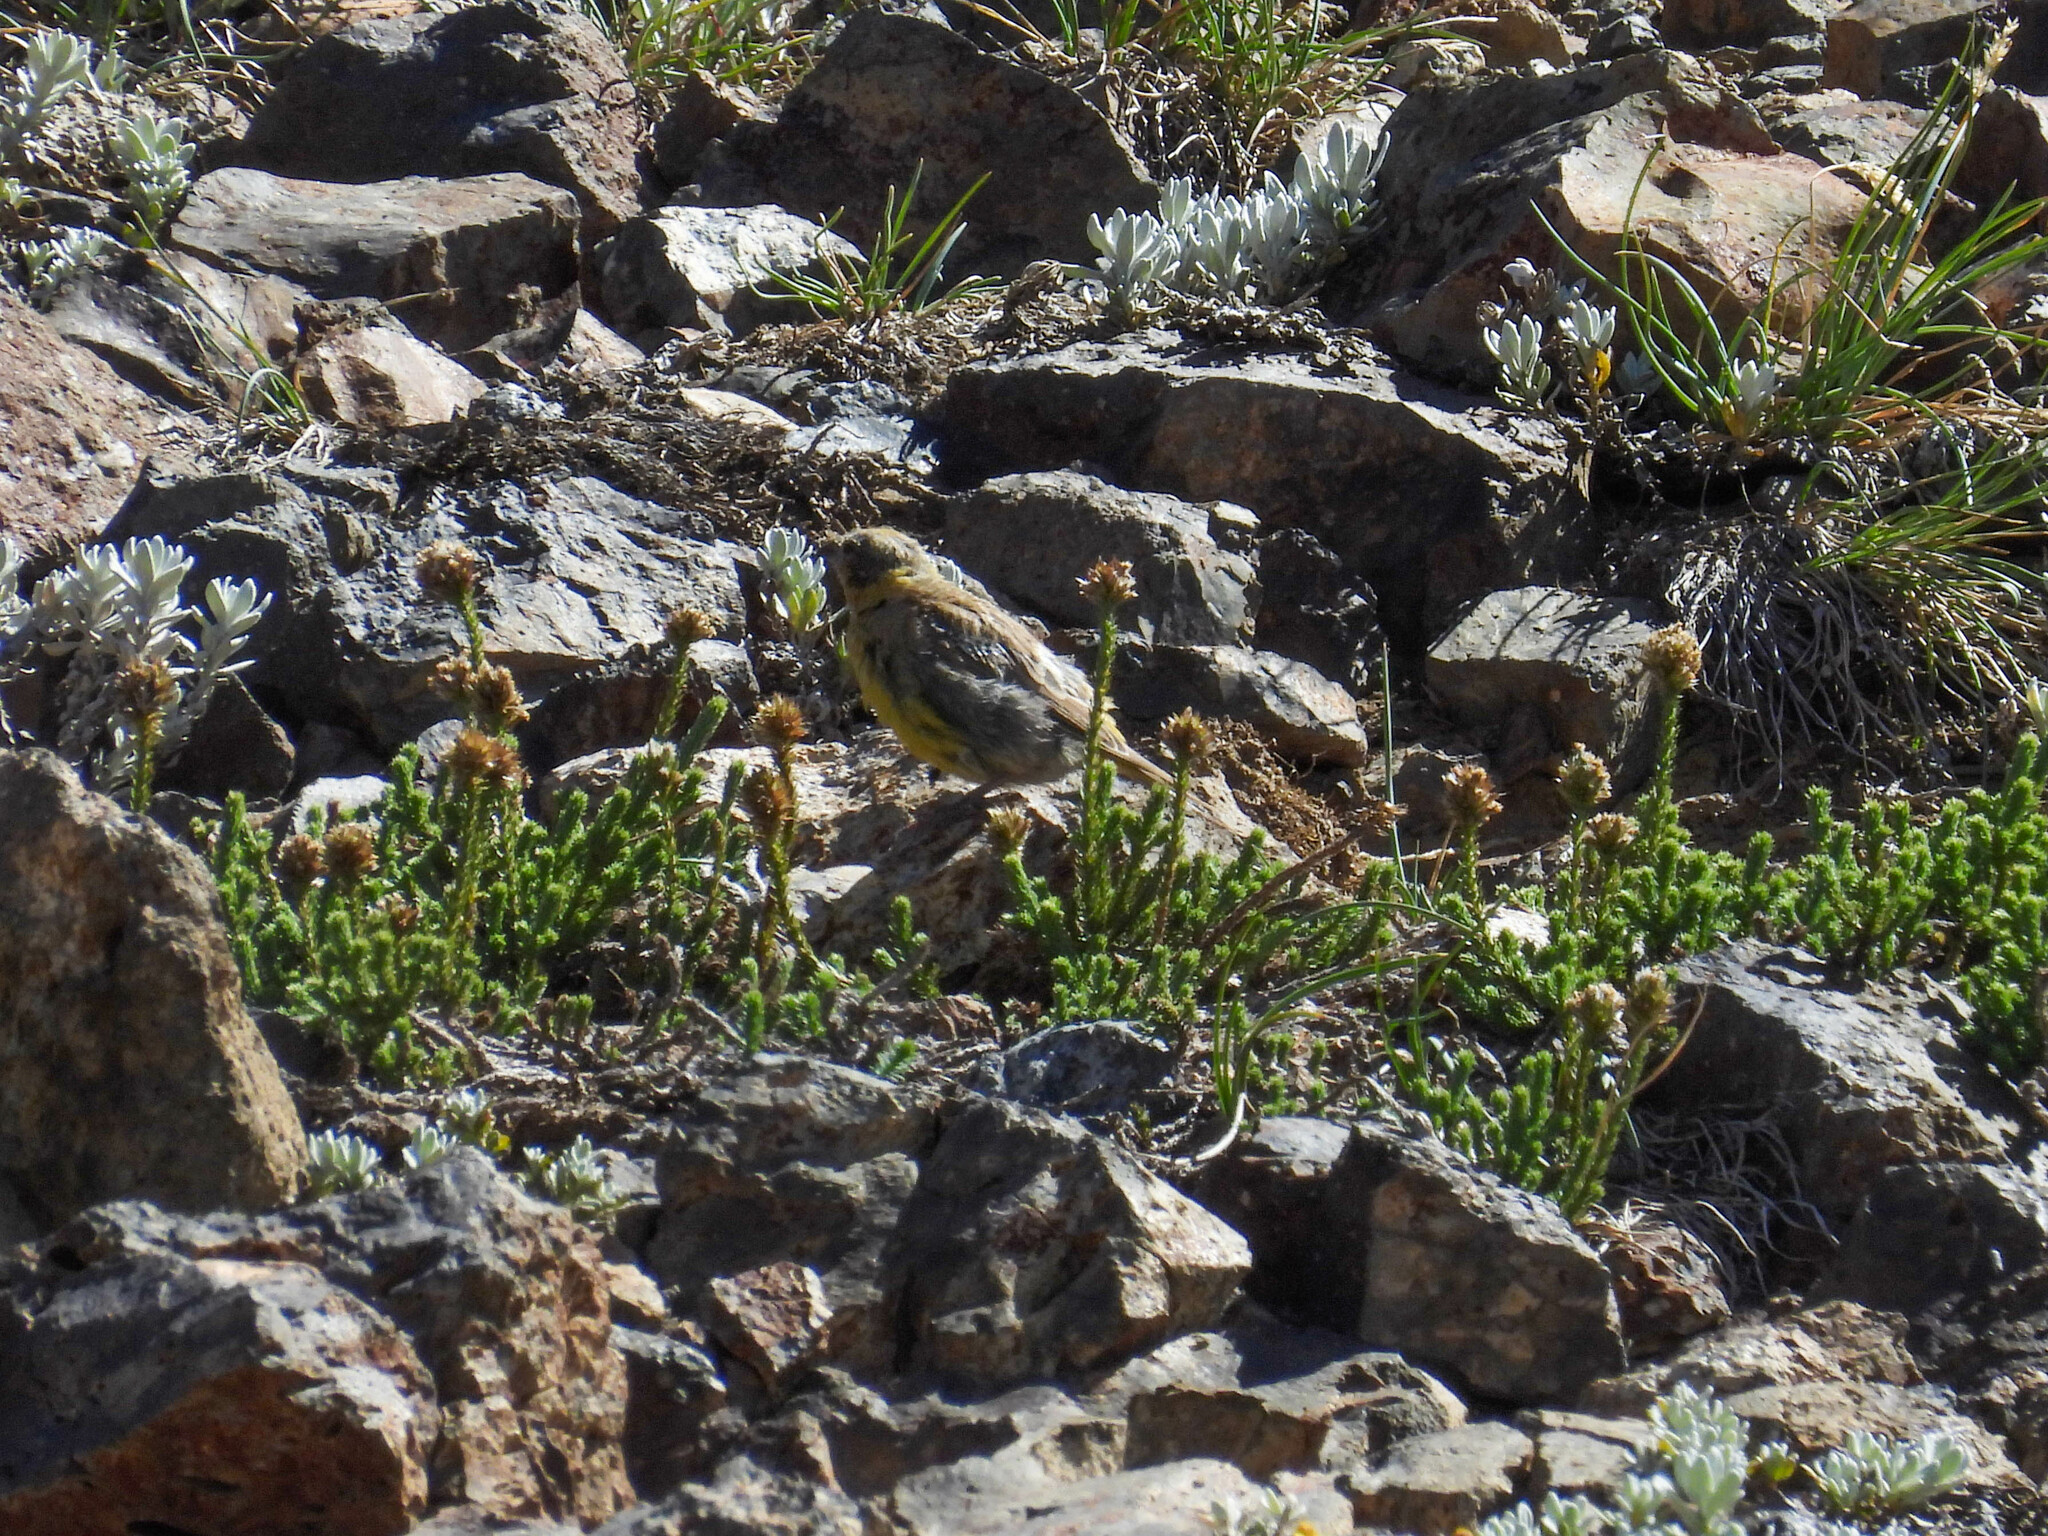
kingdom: Animalia
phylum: Chordata
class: Aves
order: Passeriformes
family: Thraupidae
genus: Sicalis
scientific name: Sicalis auriventris
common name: Greater yellow finch
